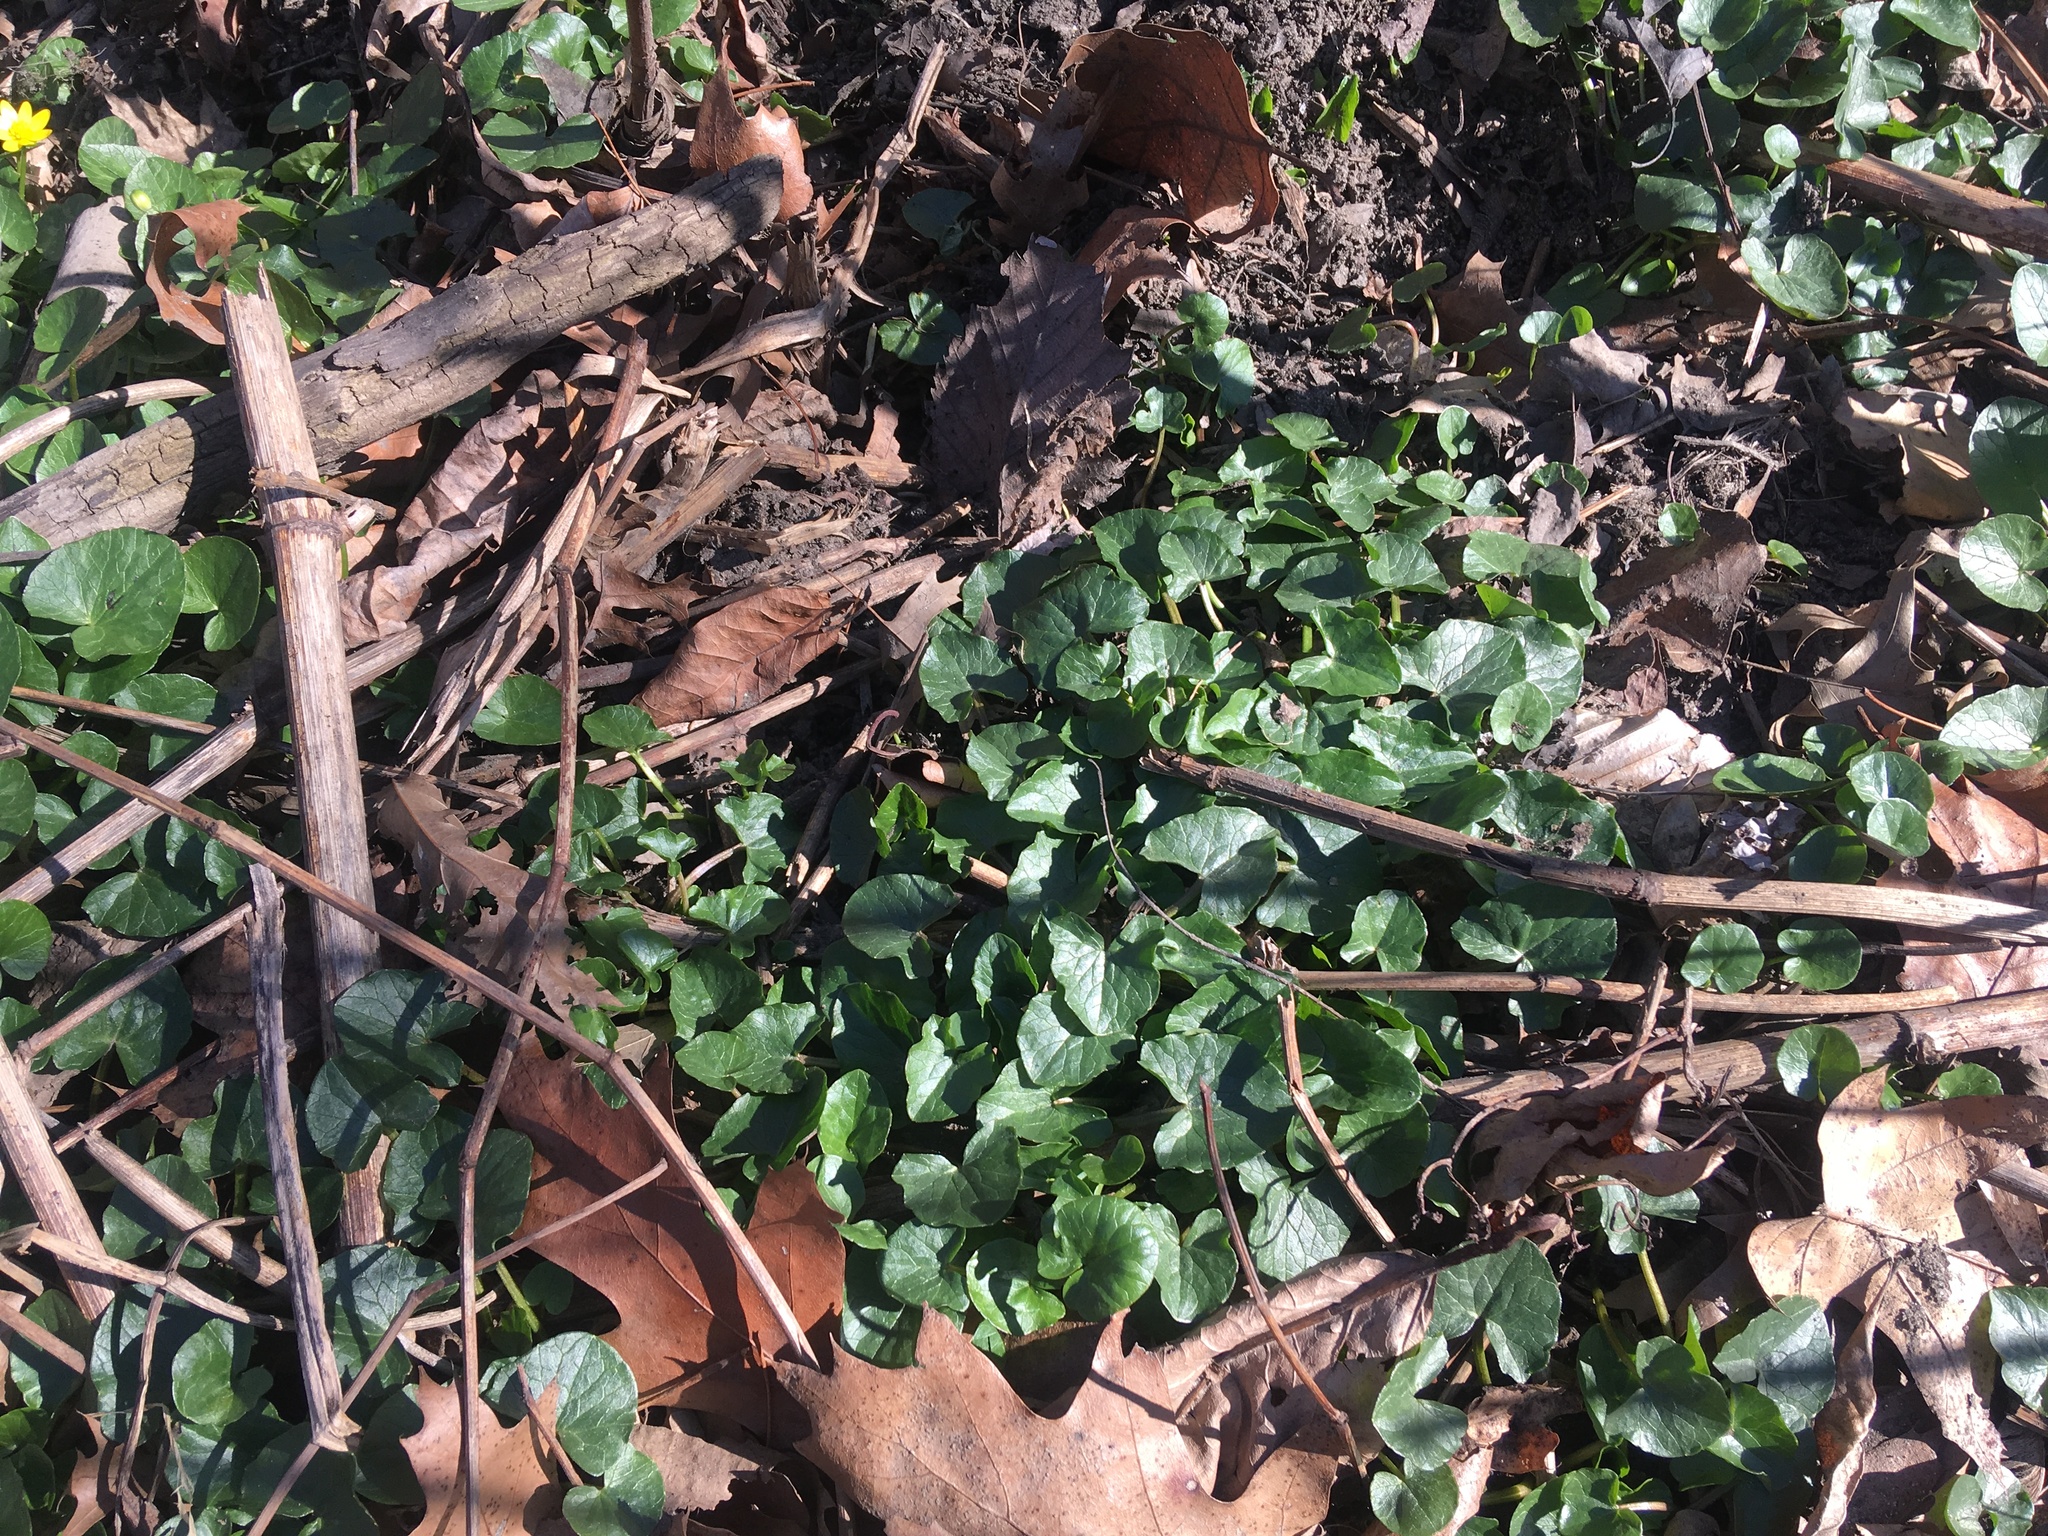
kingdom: Plantae
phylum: Tracheophyta
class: Magnoliopsida
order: Ranunculales
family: Ranunculaceae
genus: Ficaria
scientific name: Ficaria verna
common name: Lesser celandine
